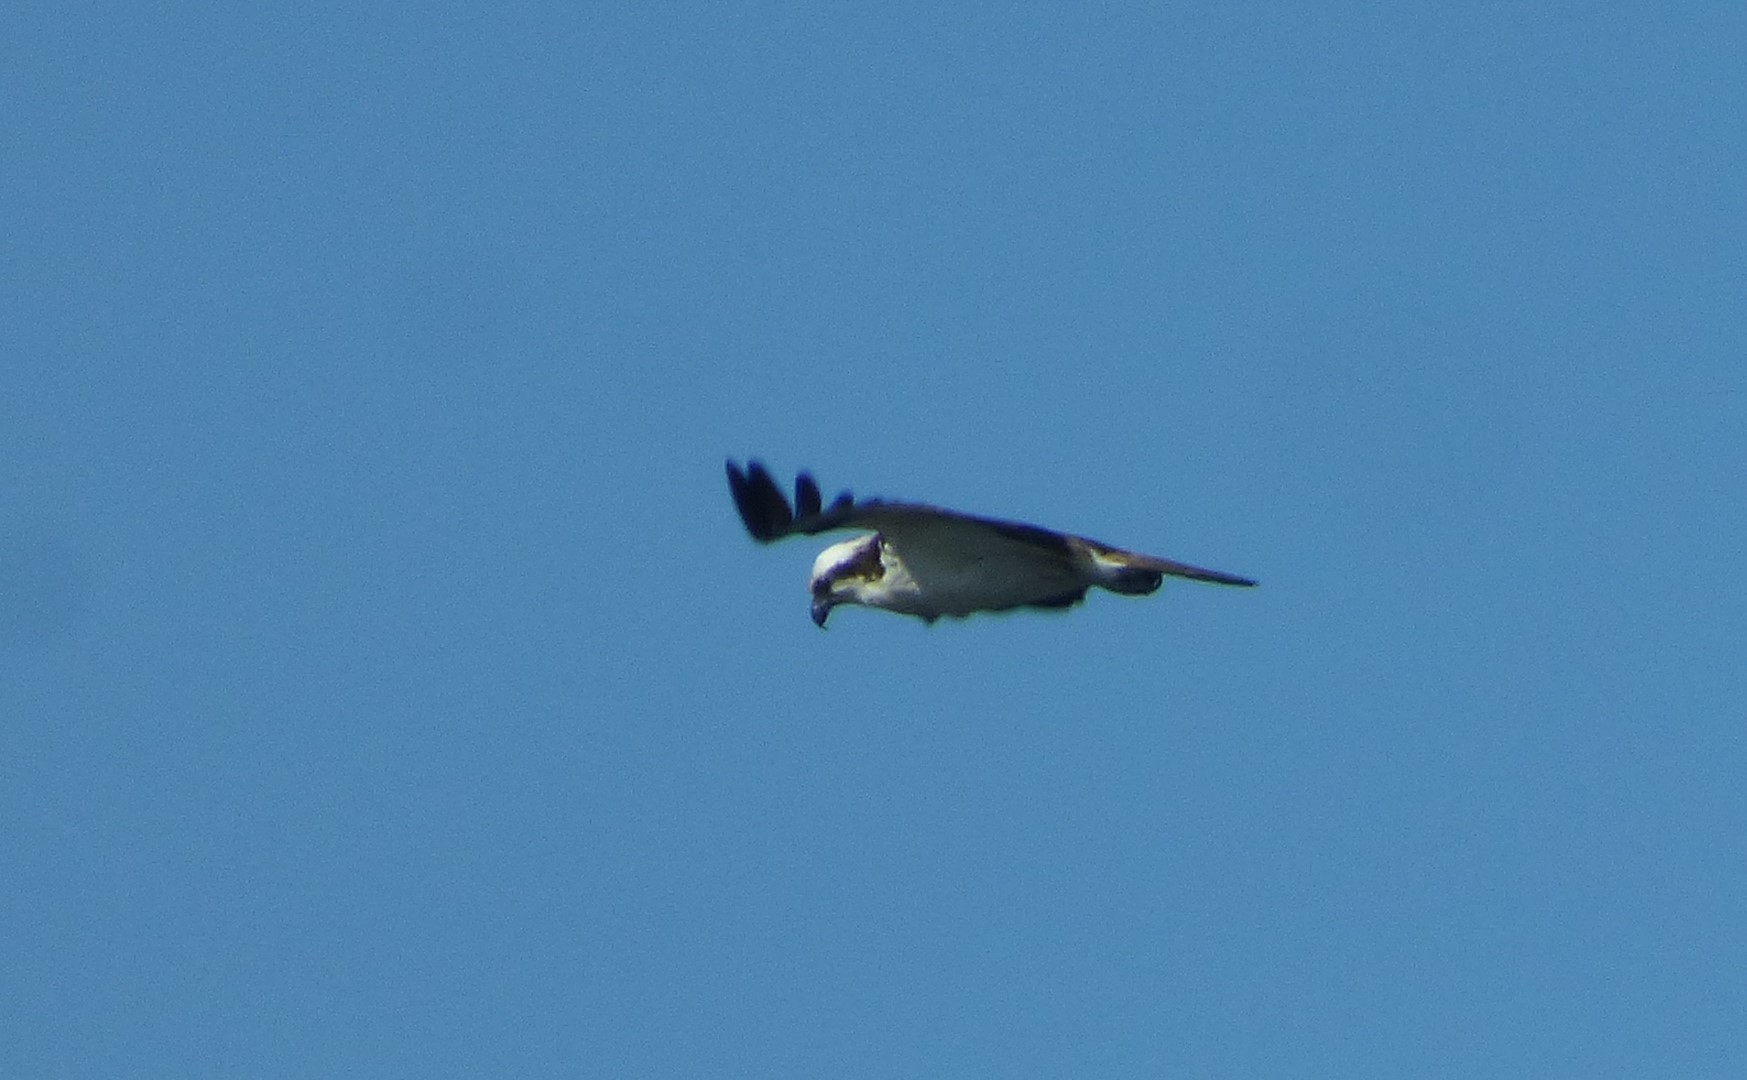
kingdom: Animalia
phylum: Chordata
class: Aves
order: Accipitriformes
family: Pandionidae
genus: Pandion
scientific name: Pandion haliaetus
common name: Osprey
